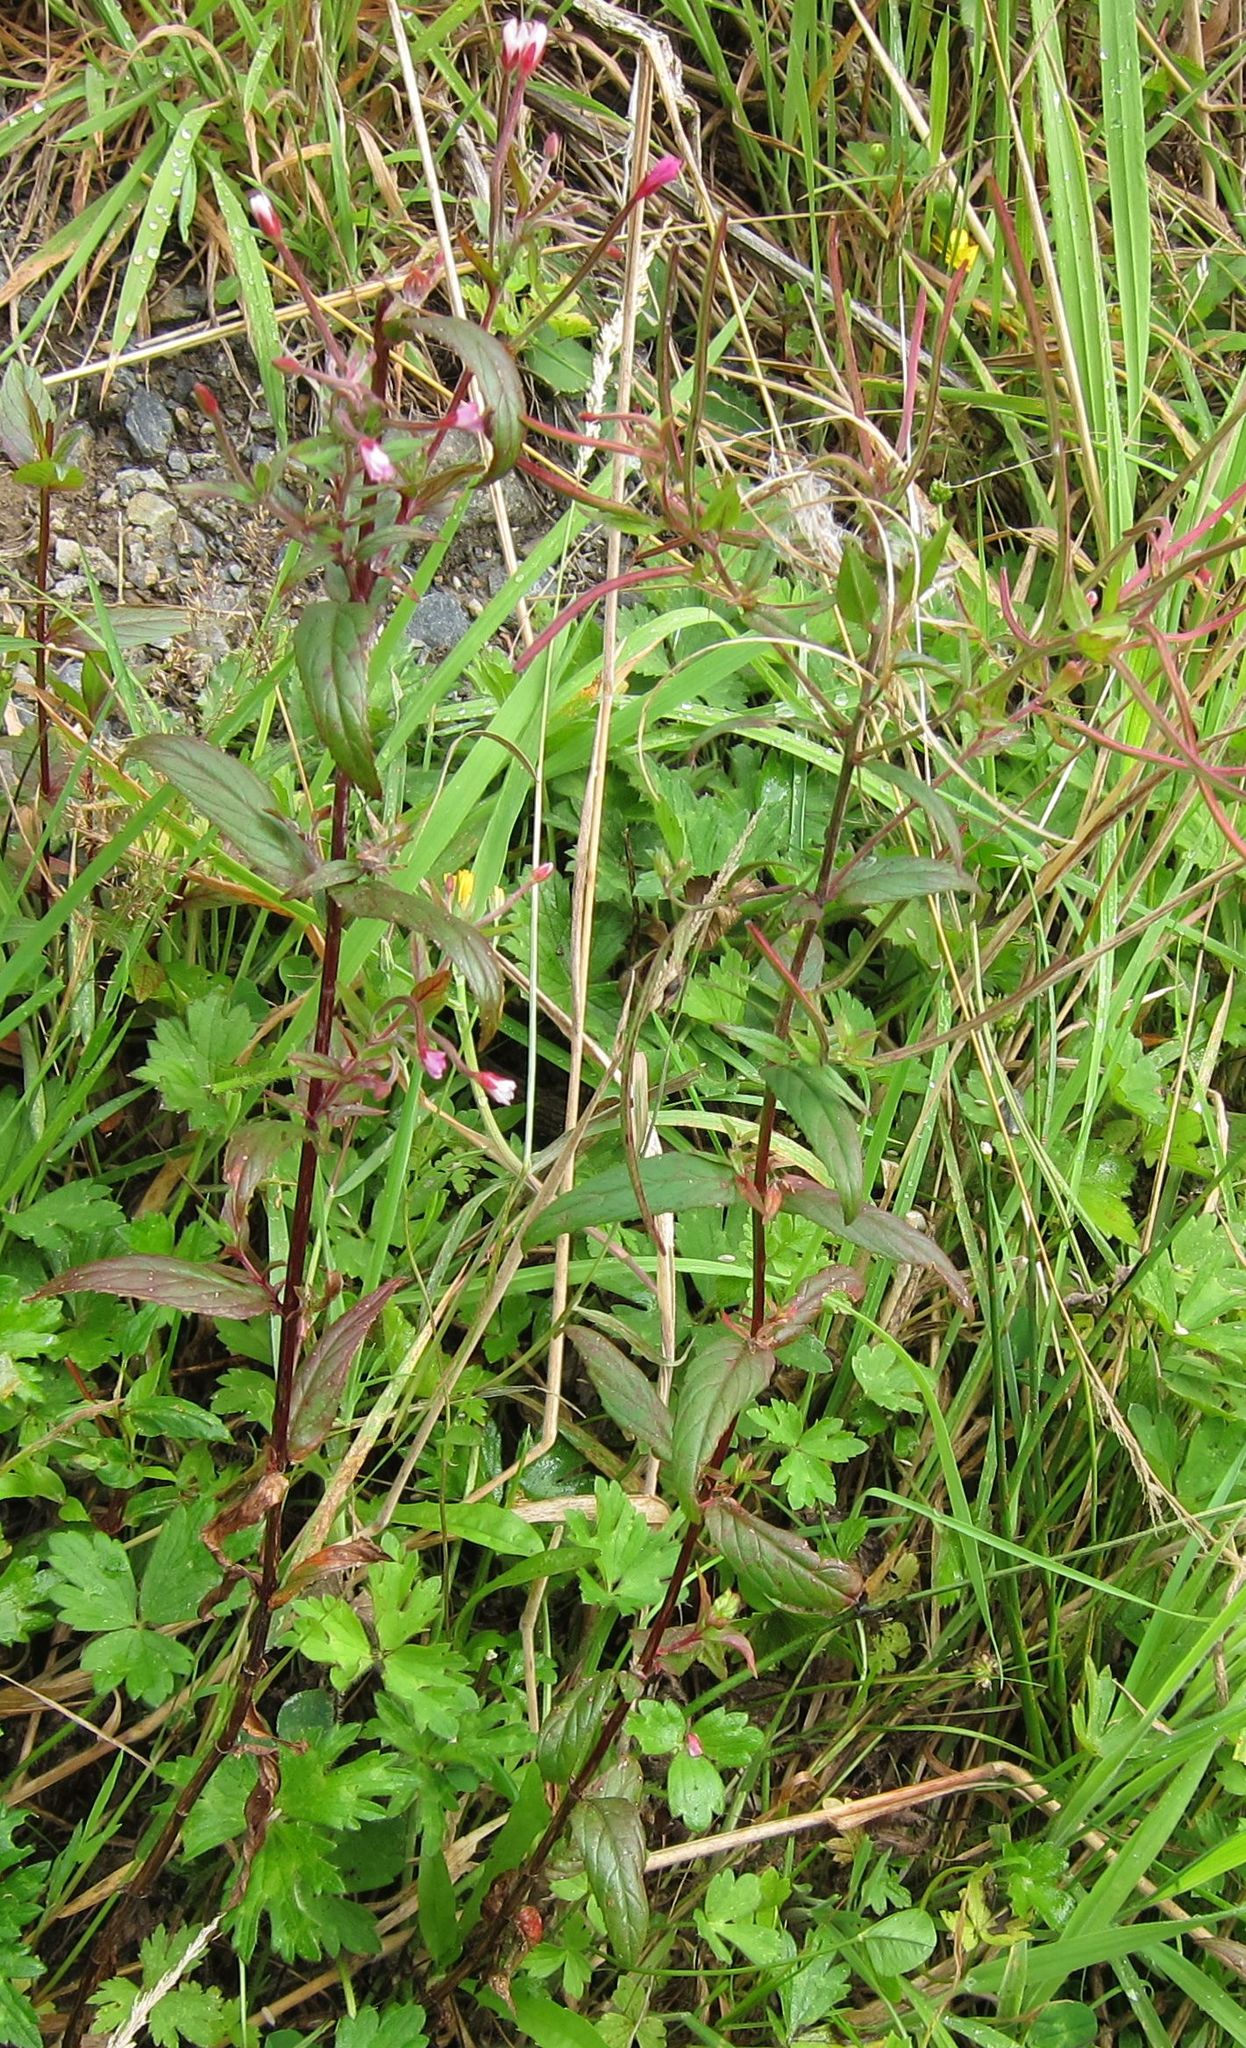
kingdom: Plantae
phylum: Tracheophyta
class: Magnoliopsida
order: Myrtales
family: Onagraceae
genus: Epilobium
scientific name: Epilobium ciliatum
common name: American willowherb
